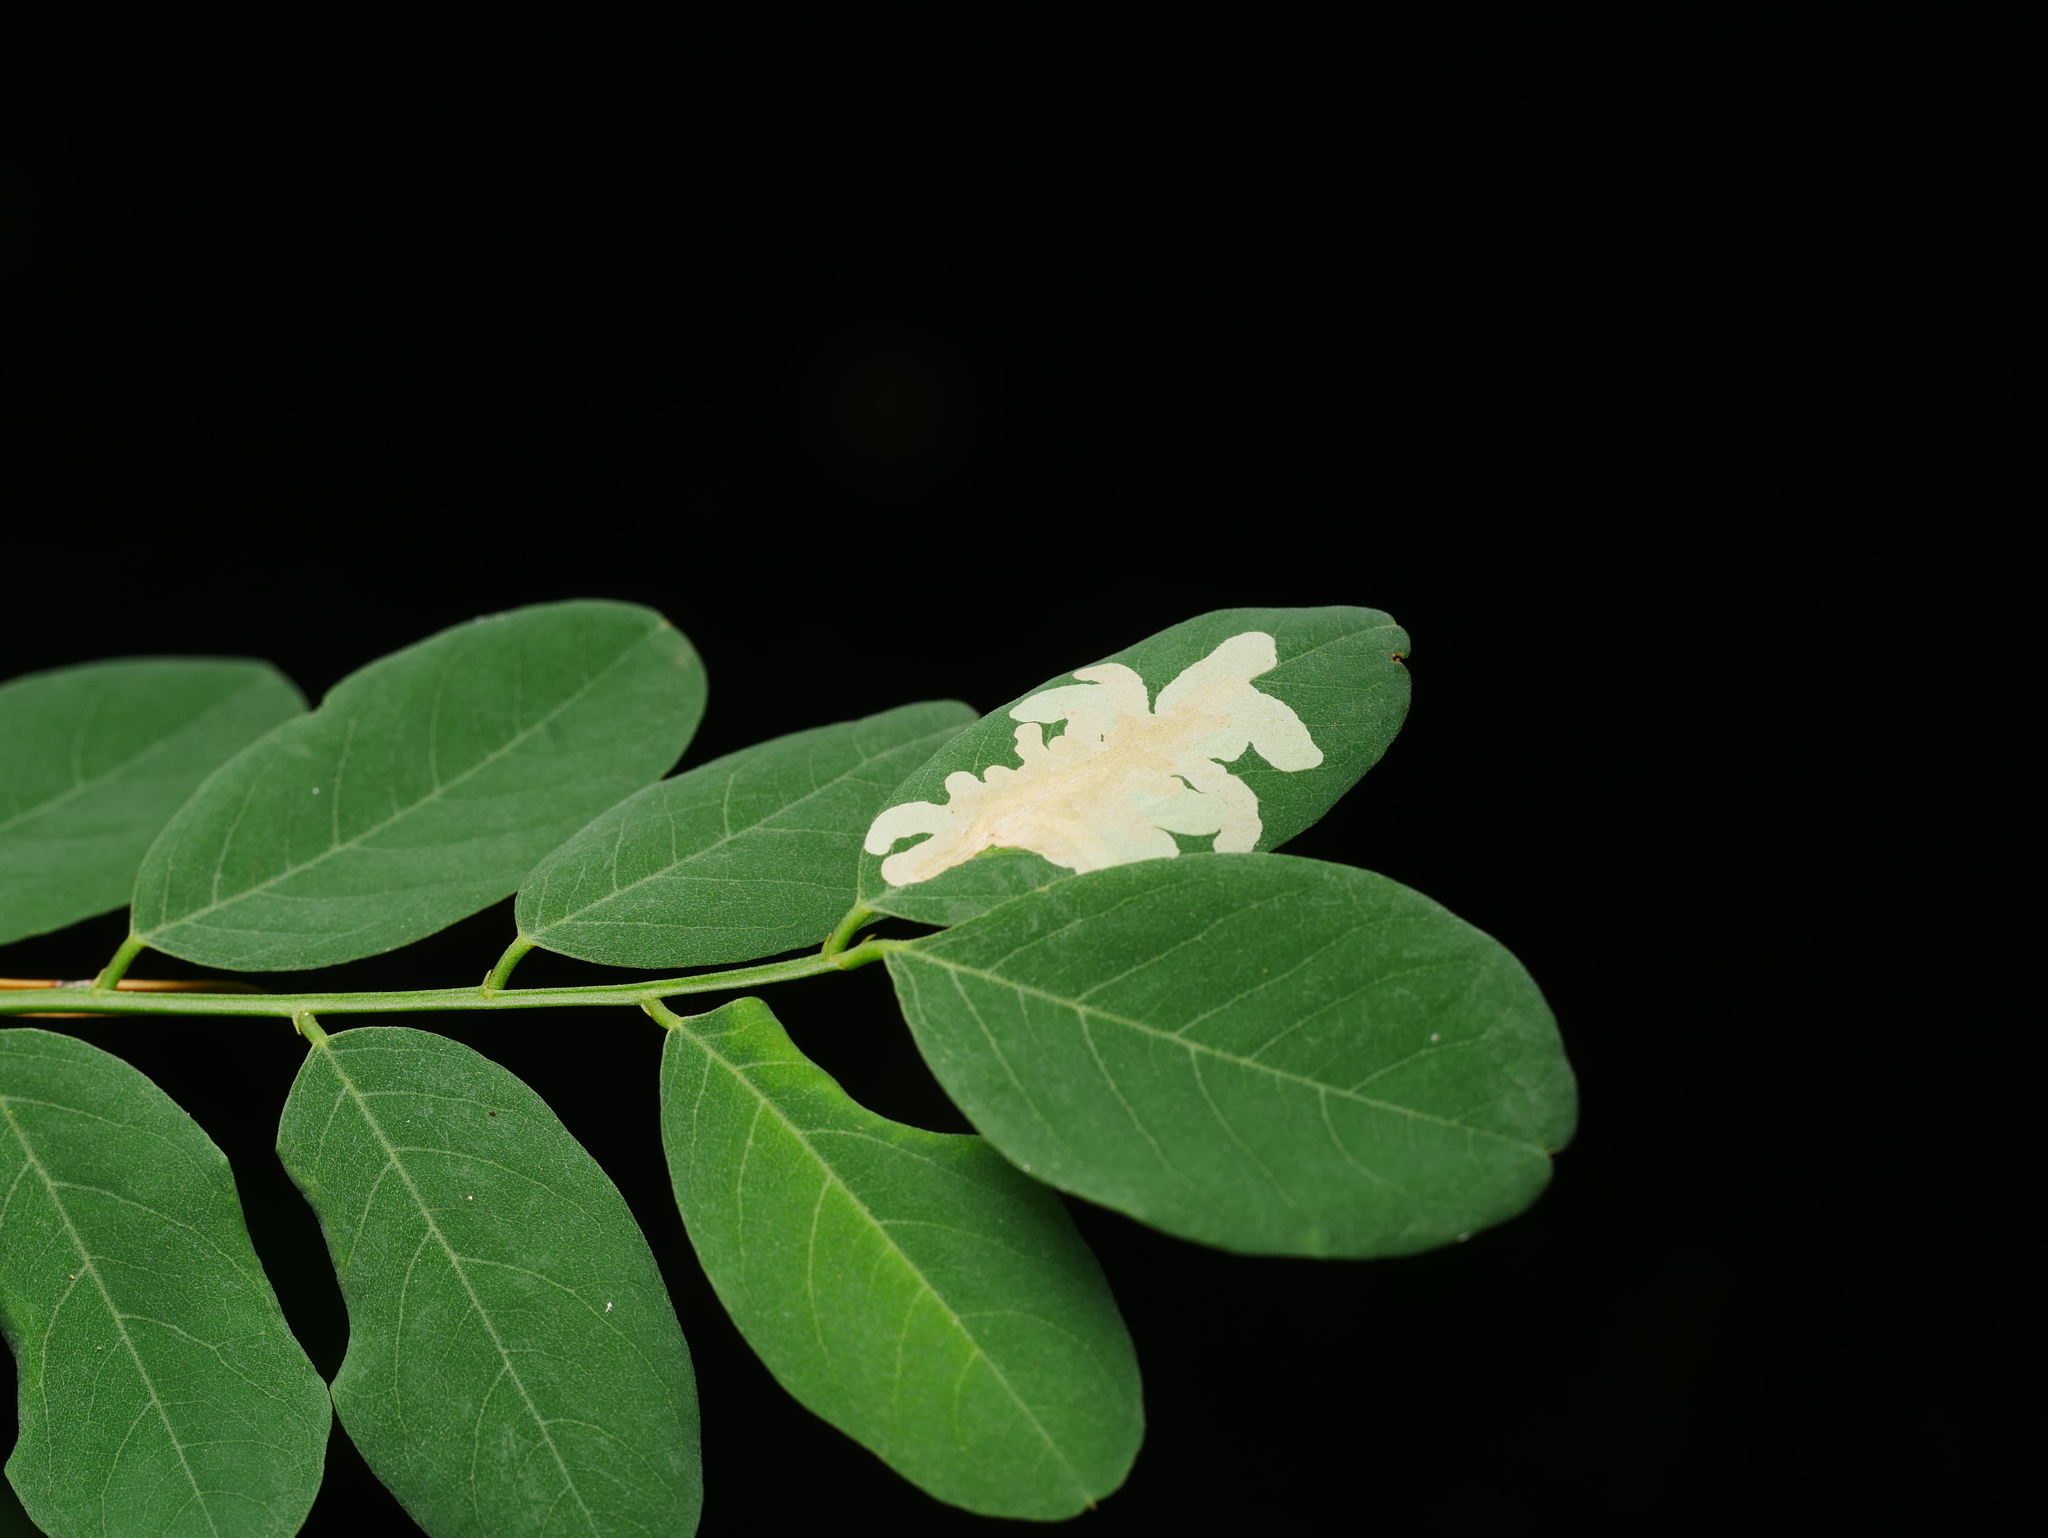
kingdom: Plantae
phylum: Tracheophyta
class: Magnoliopsida
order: Fabales
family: Fabaceae
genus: Robinia
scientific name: Robinia pseudoacacia
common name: Black locust
